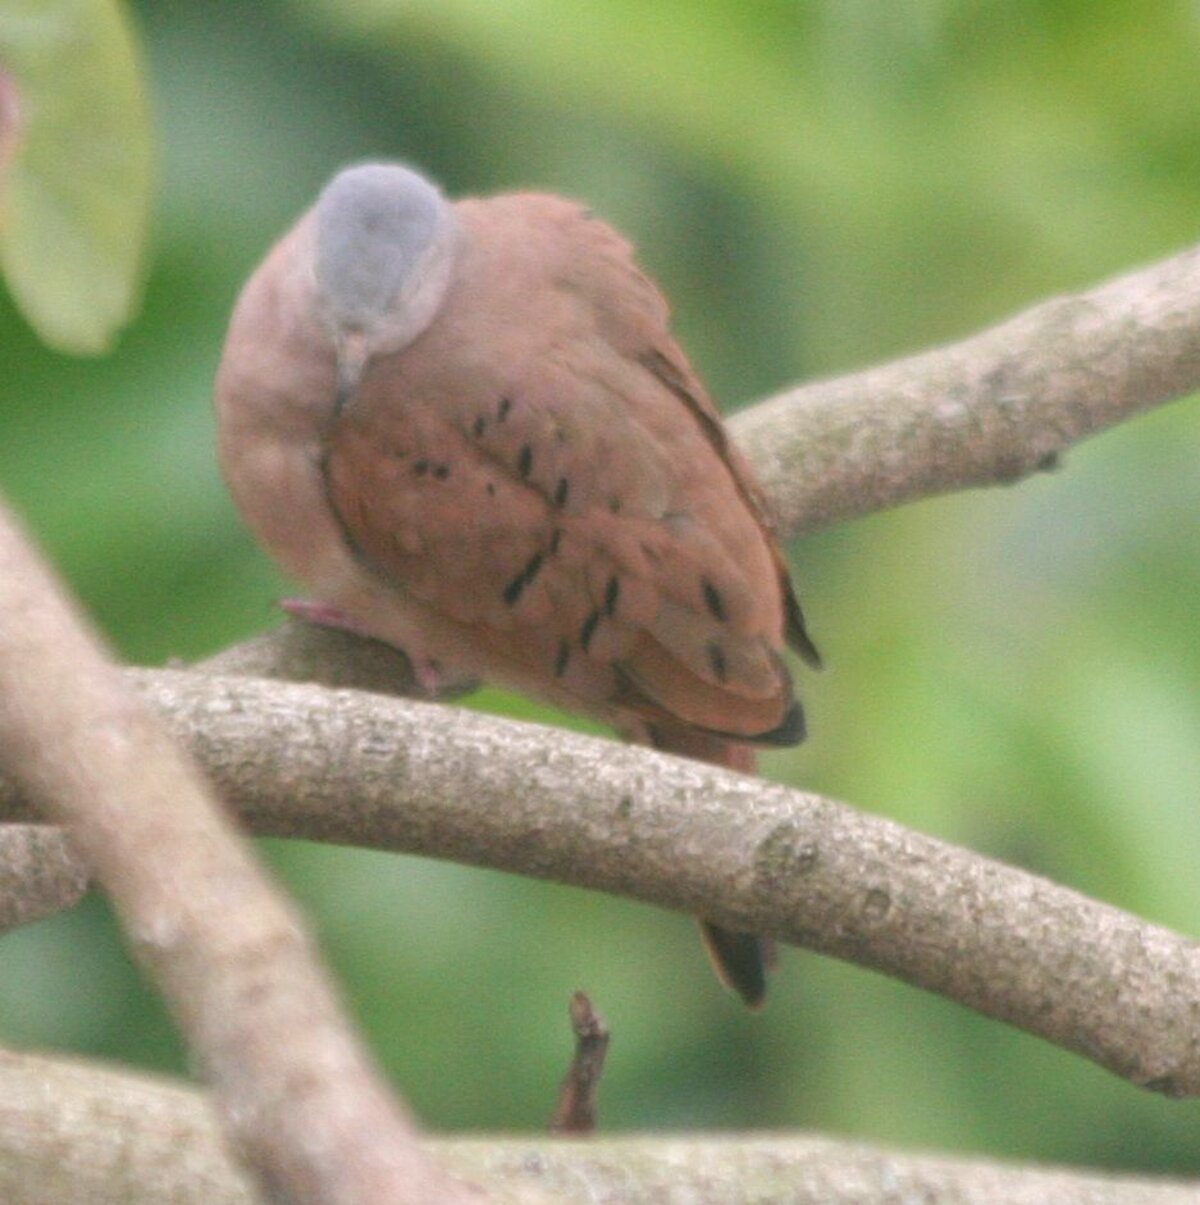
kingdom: Animalia
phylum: Chordata
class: Aves
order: Columbiformes
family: Columbidae
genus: Columbina
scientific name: Columbina talpacoti
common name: Ruddy ground dove
